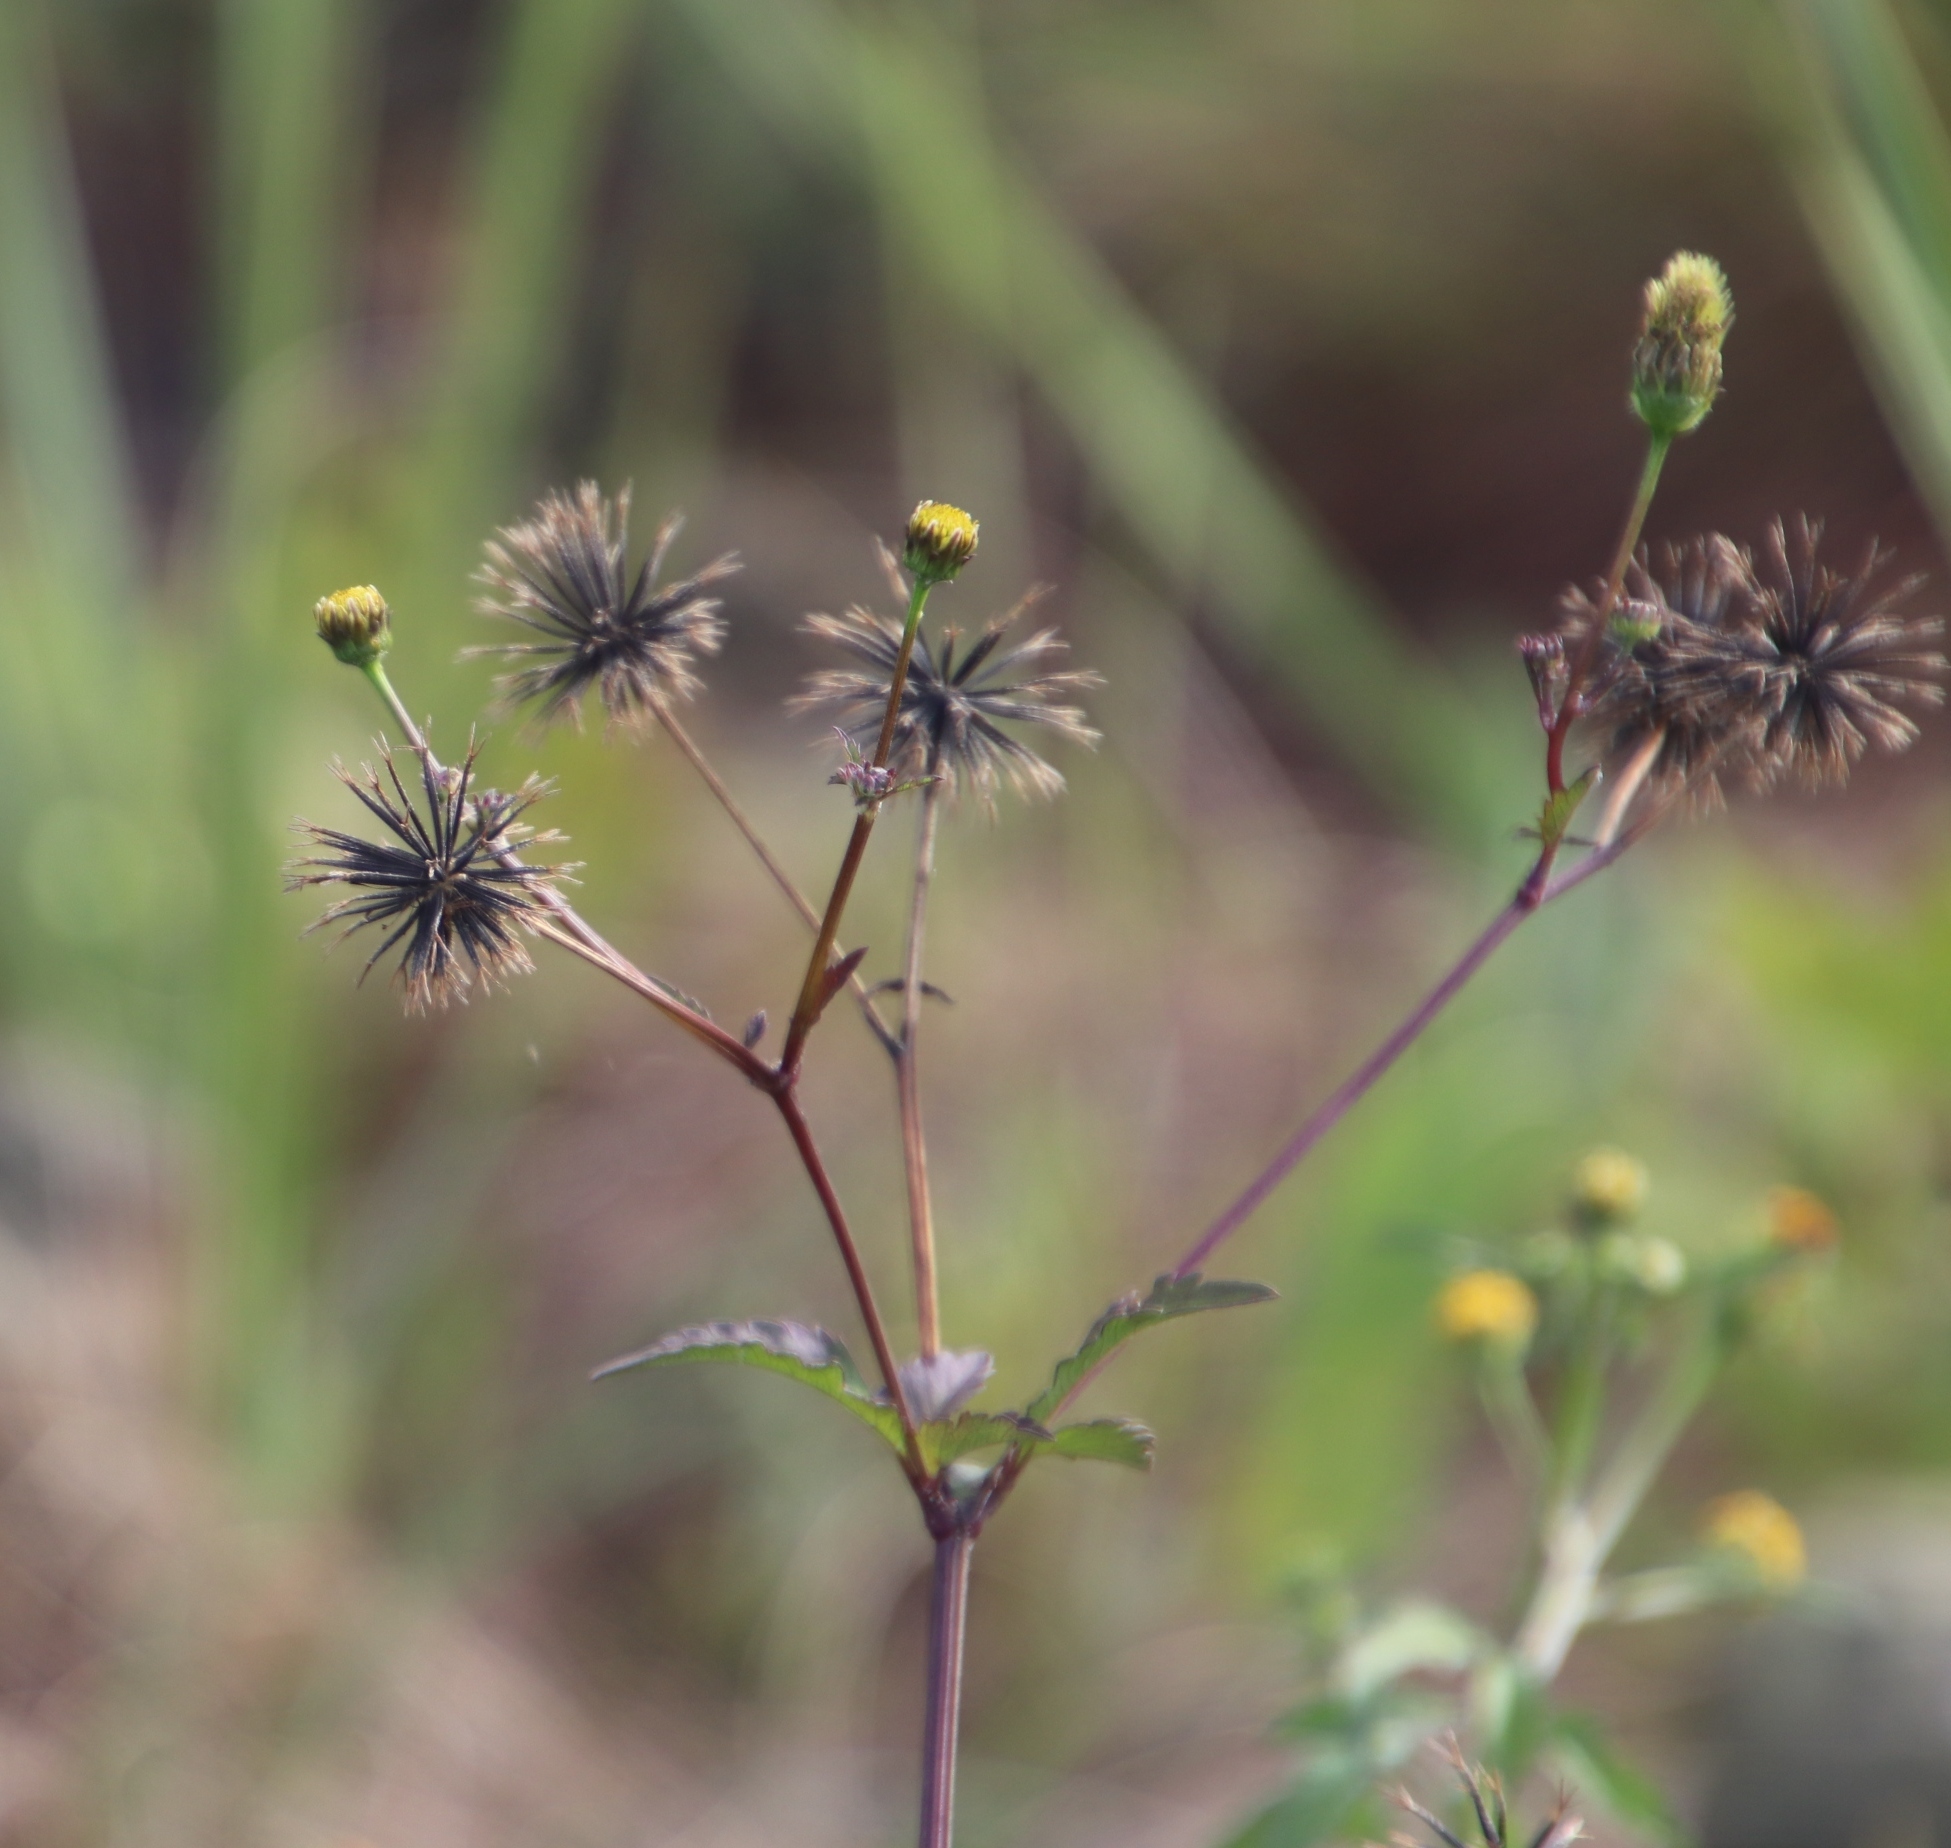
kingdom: Plantae
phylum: Tracheophyta
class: Magnoliopsida
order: Asterales
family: Asteraceae
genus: Bidens
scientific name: Bidens pilosa
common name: Black-jack
